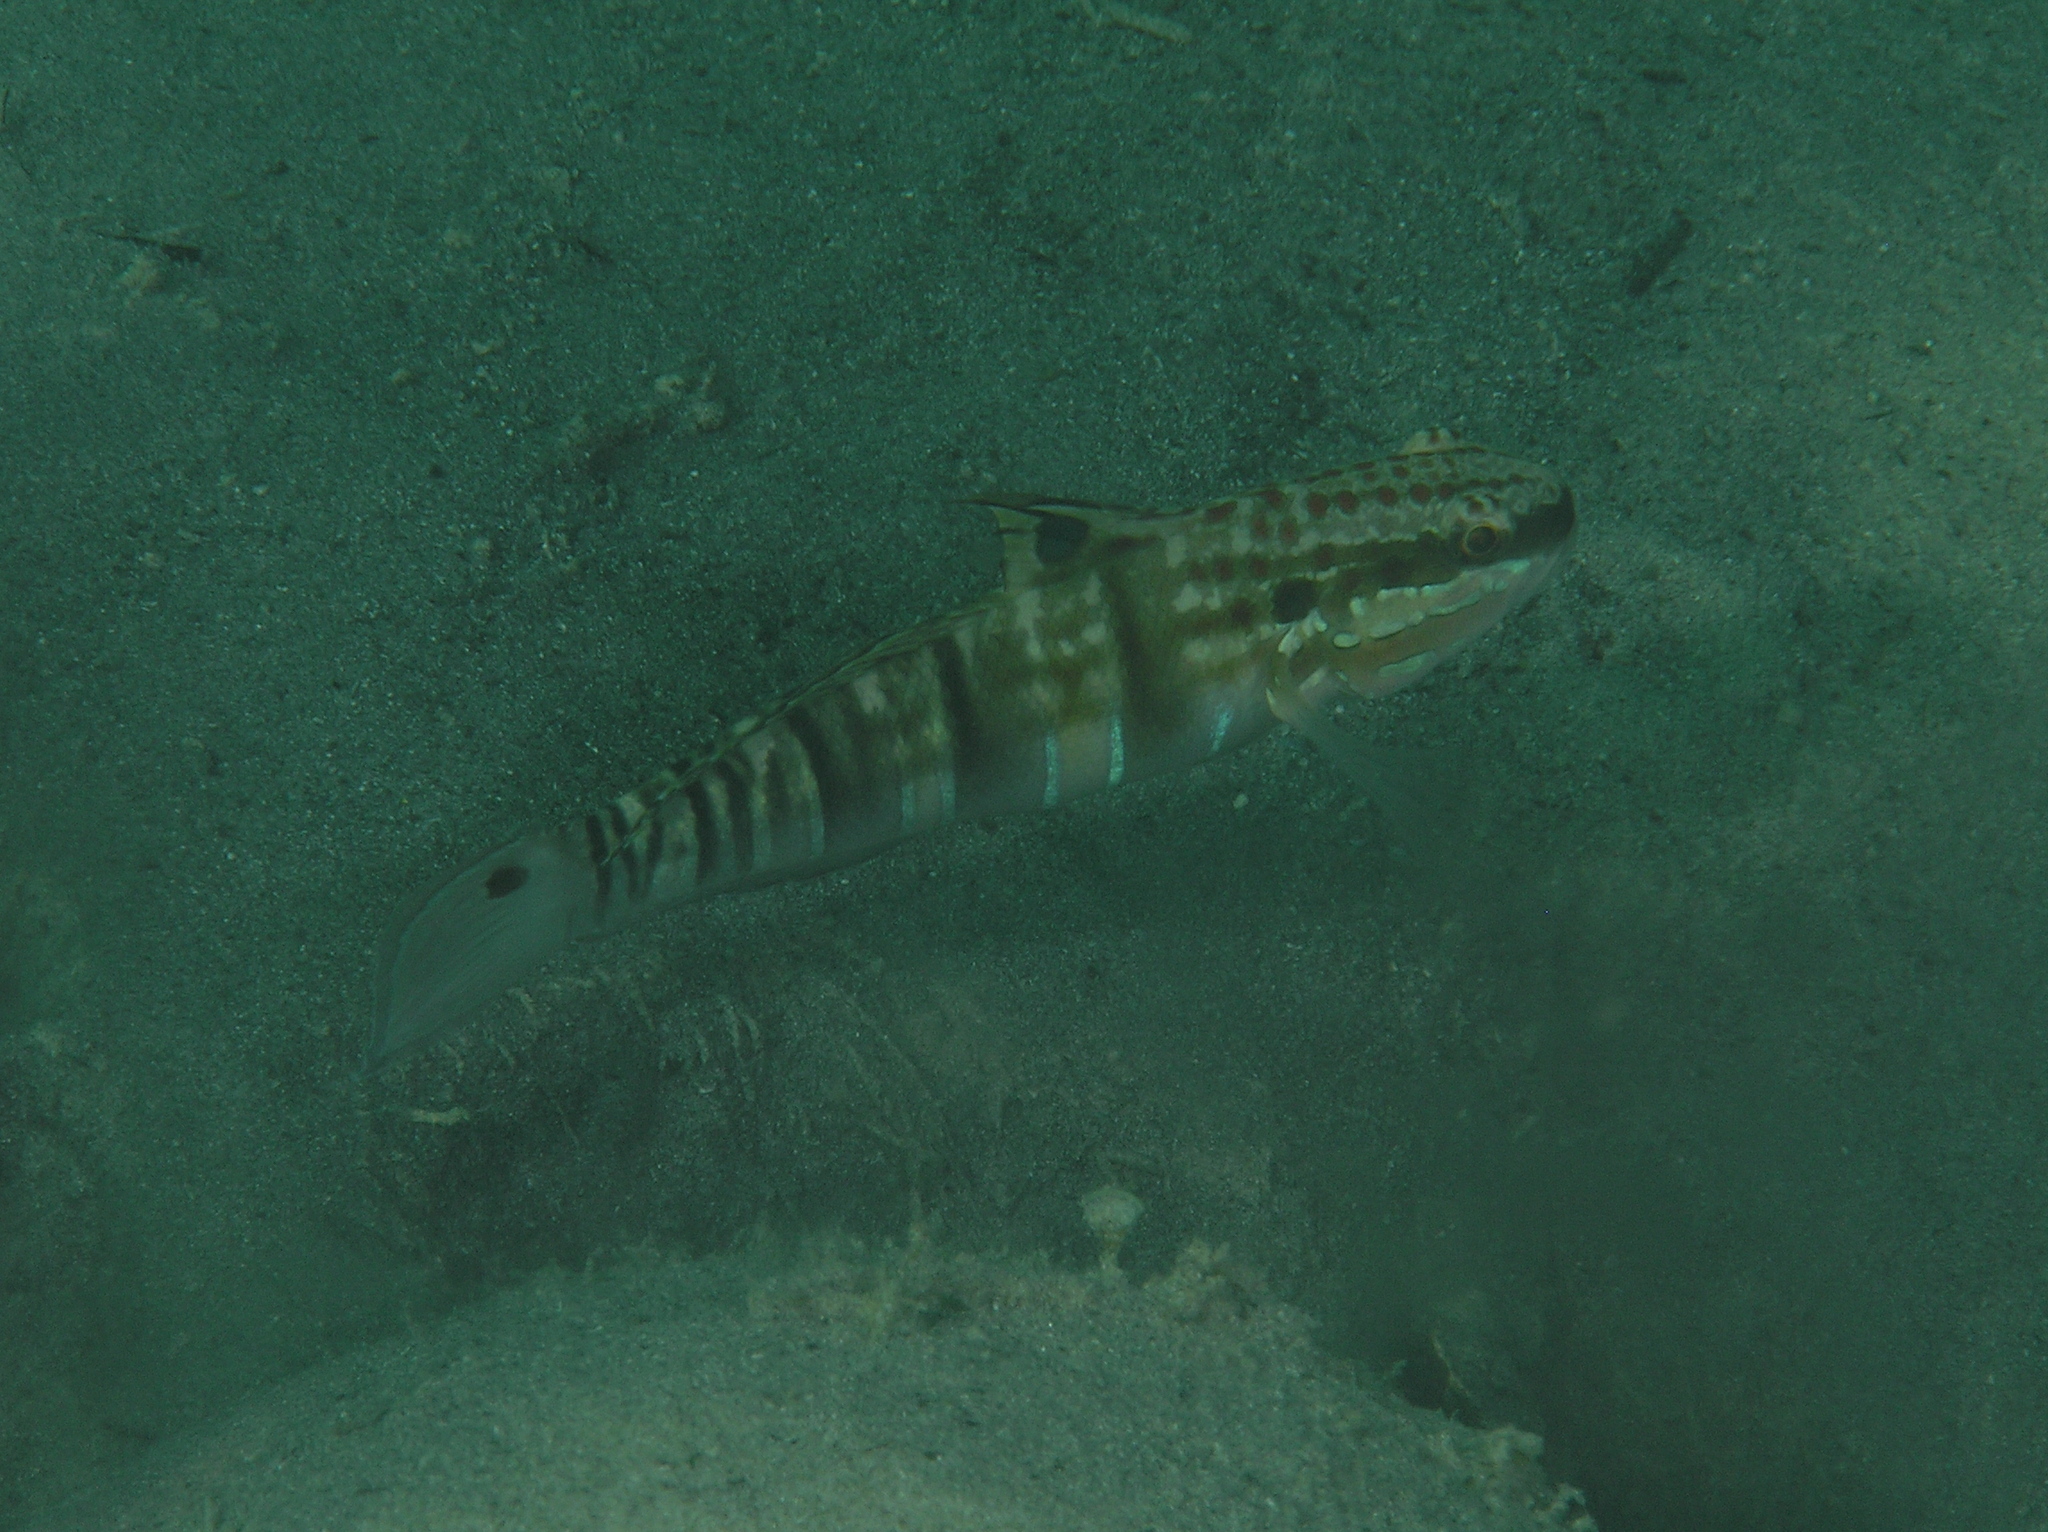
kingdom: Animalia
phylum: Chordata
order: Perciformes
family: Gobiidae
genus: Amblygobius
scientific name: Amblygobius phalaena
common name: Banded goby
